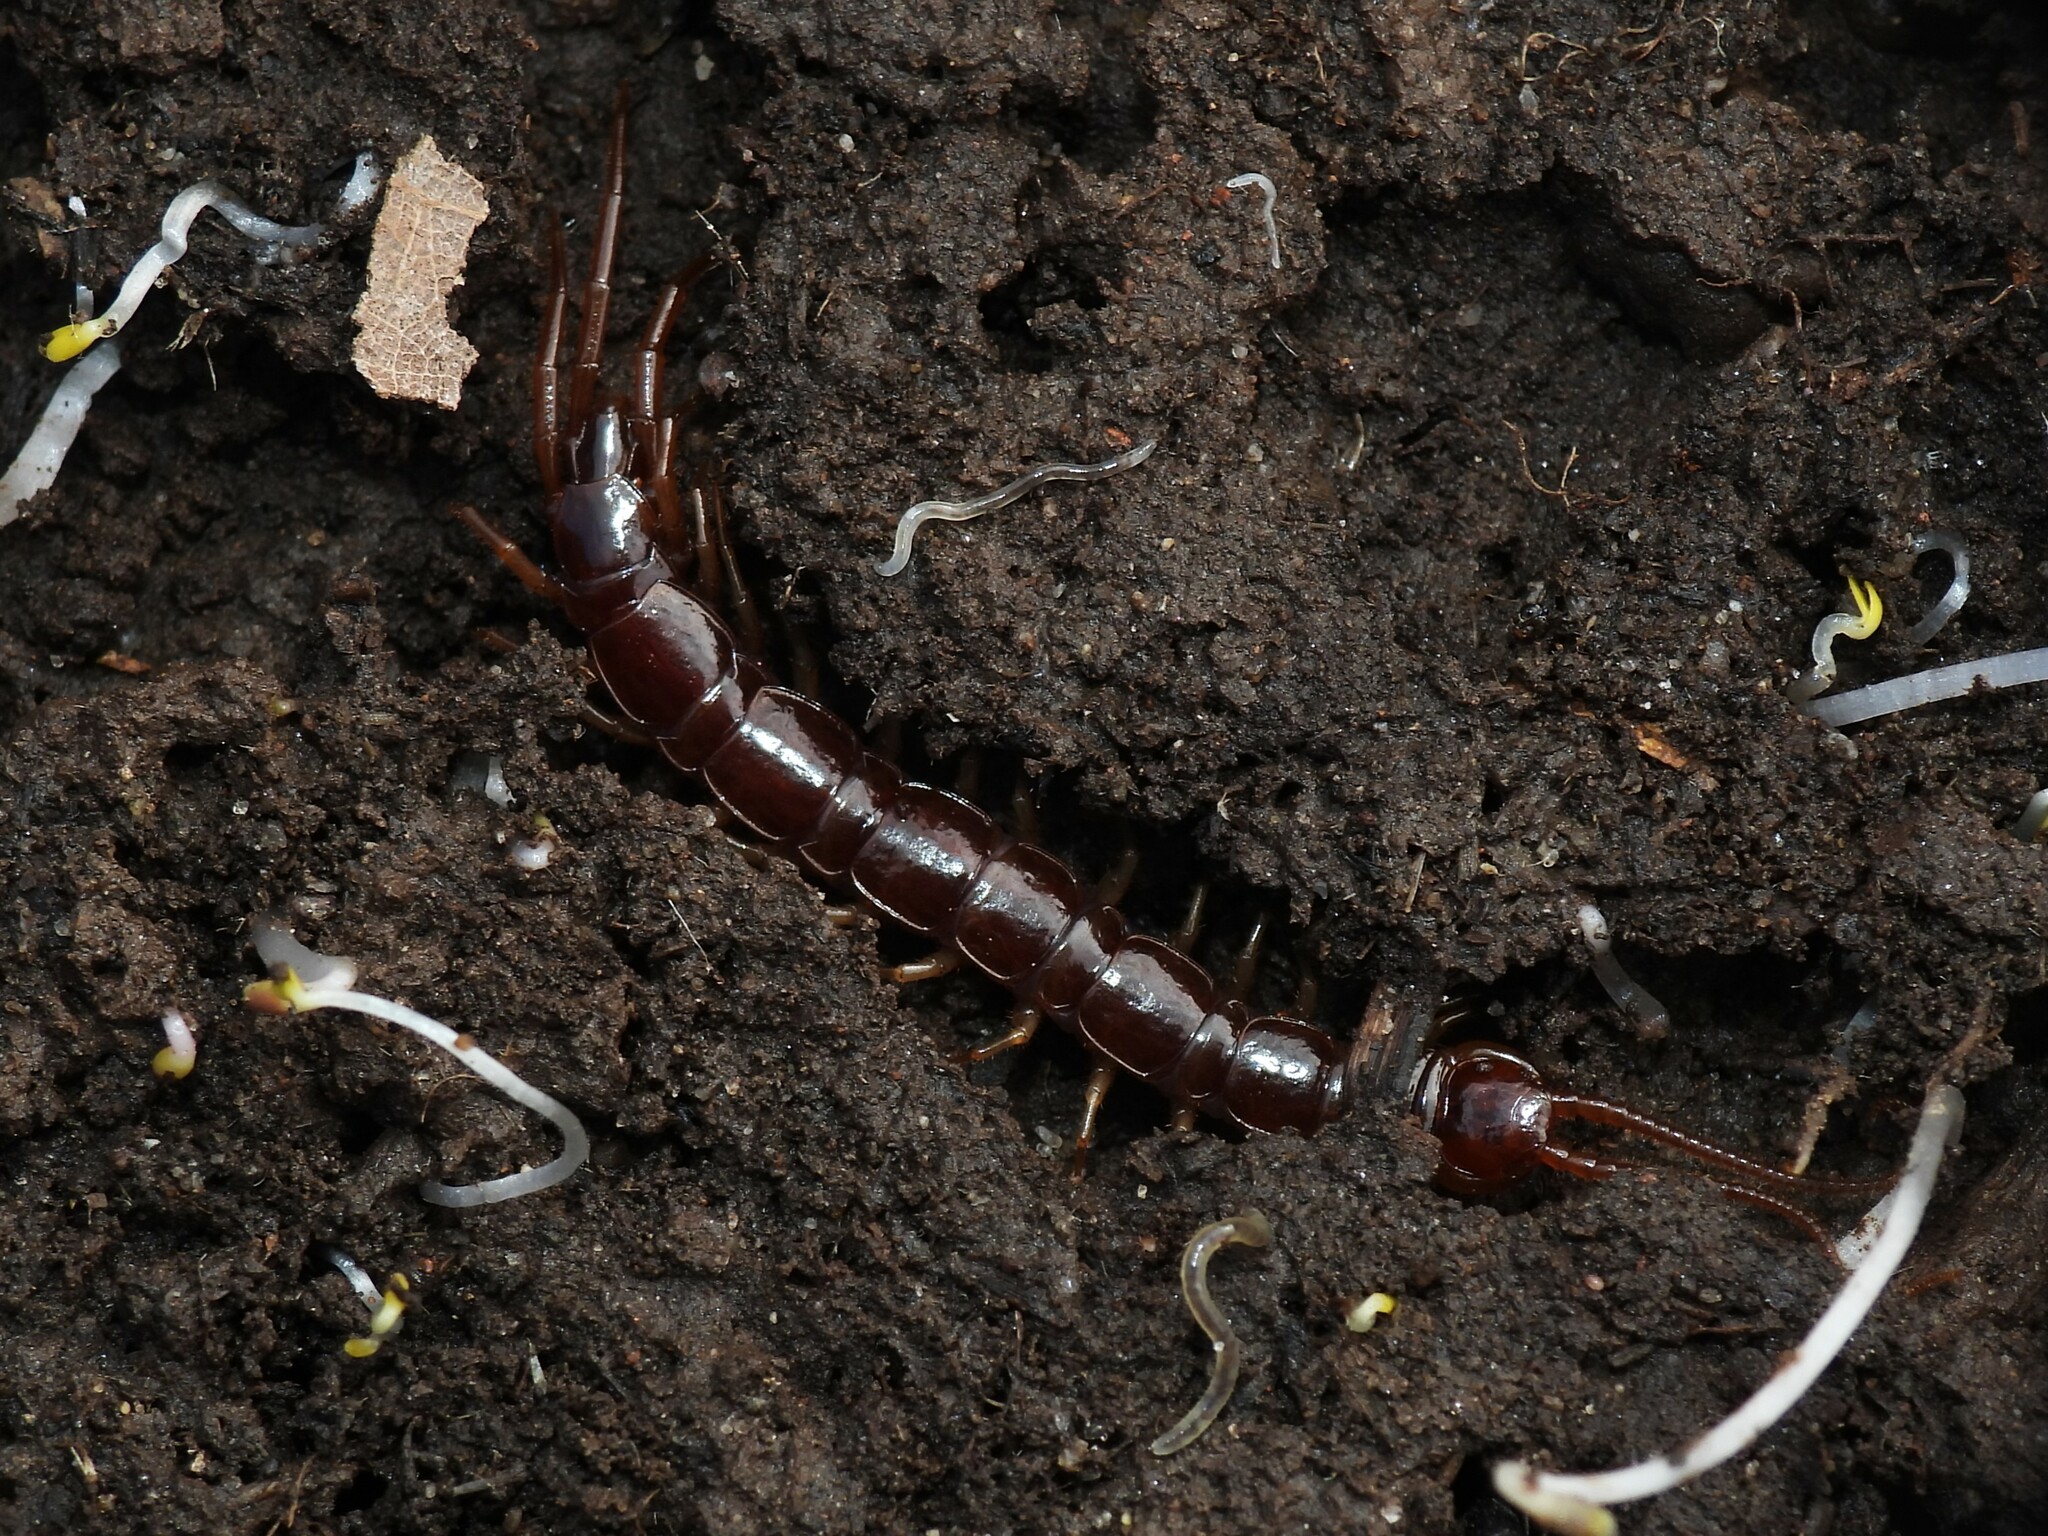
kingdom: Animalia
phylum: Arthropoda
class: Chilopoda
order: Lithobiomorpha
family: Lithobiidae
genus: Lithobius
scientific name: Lithobius forficatus
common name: Centipede
